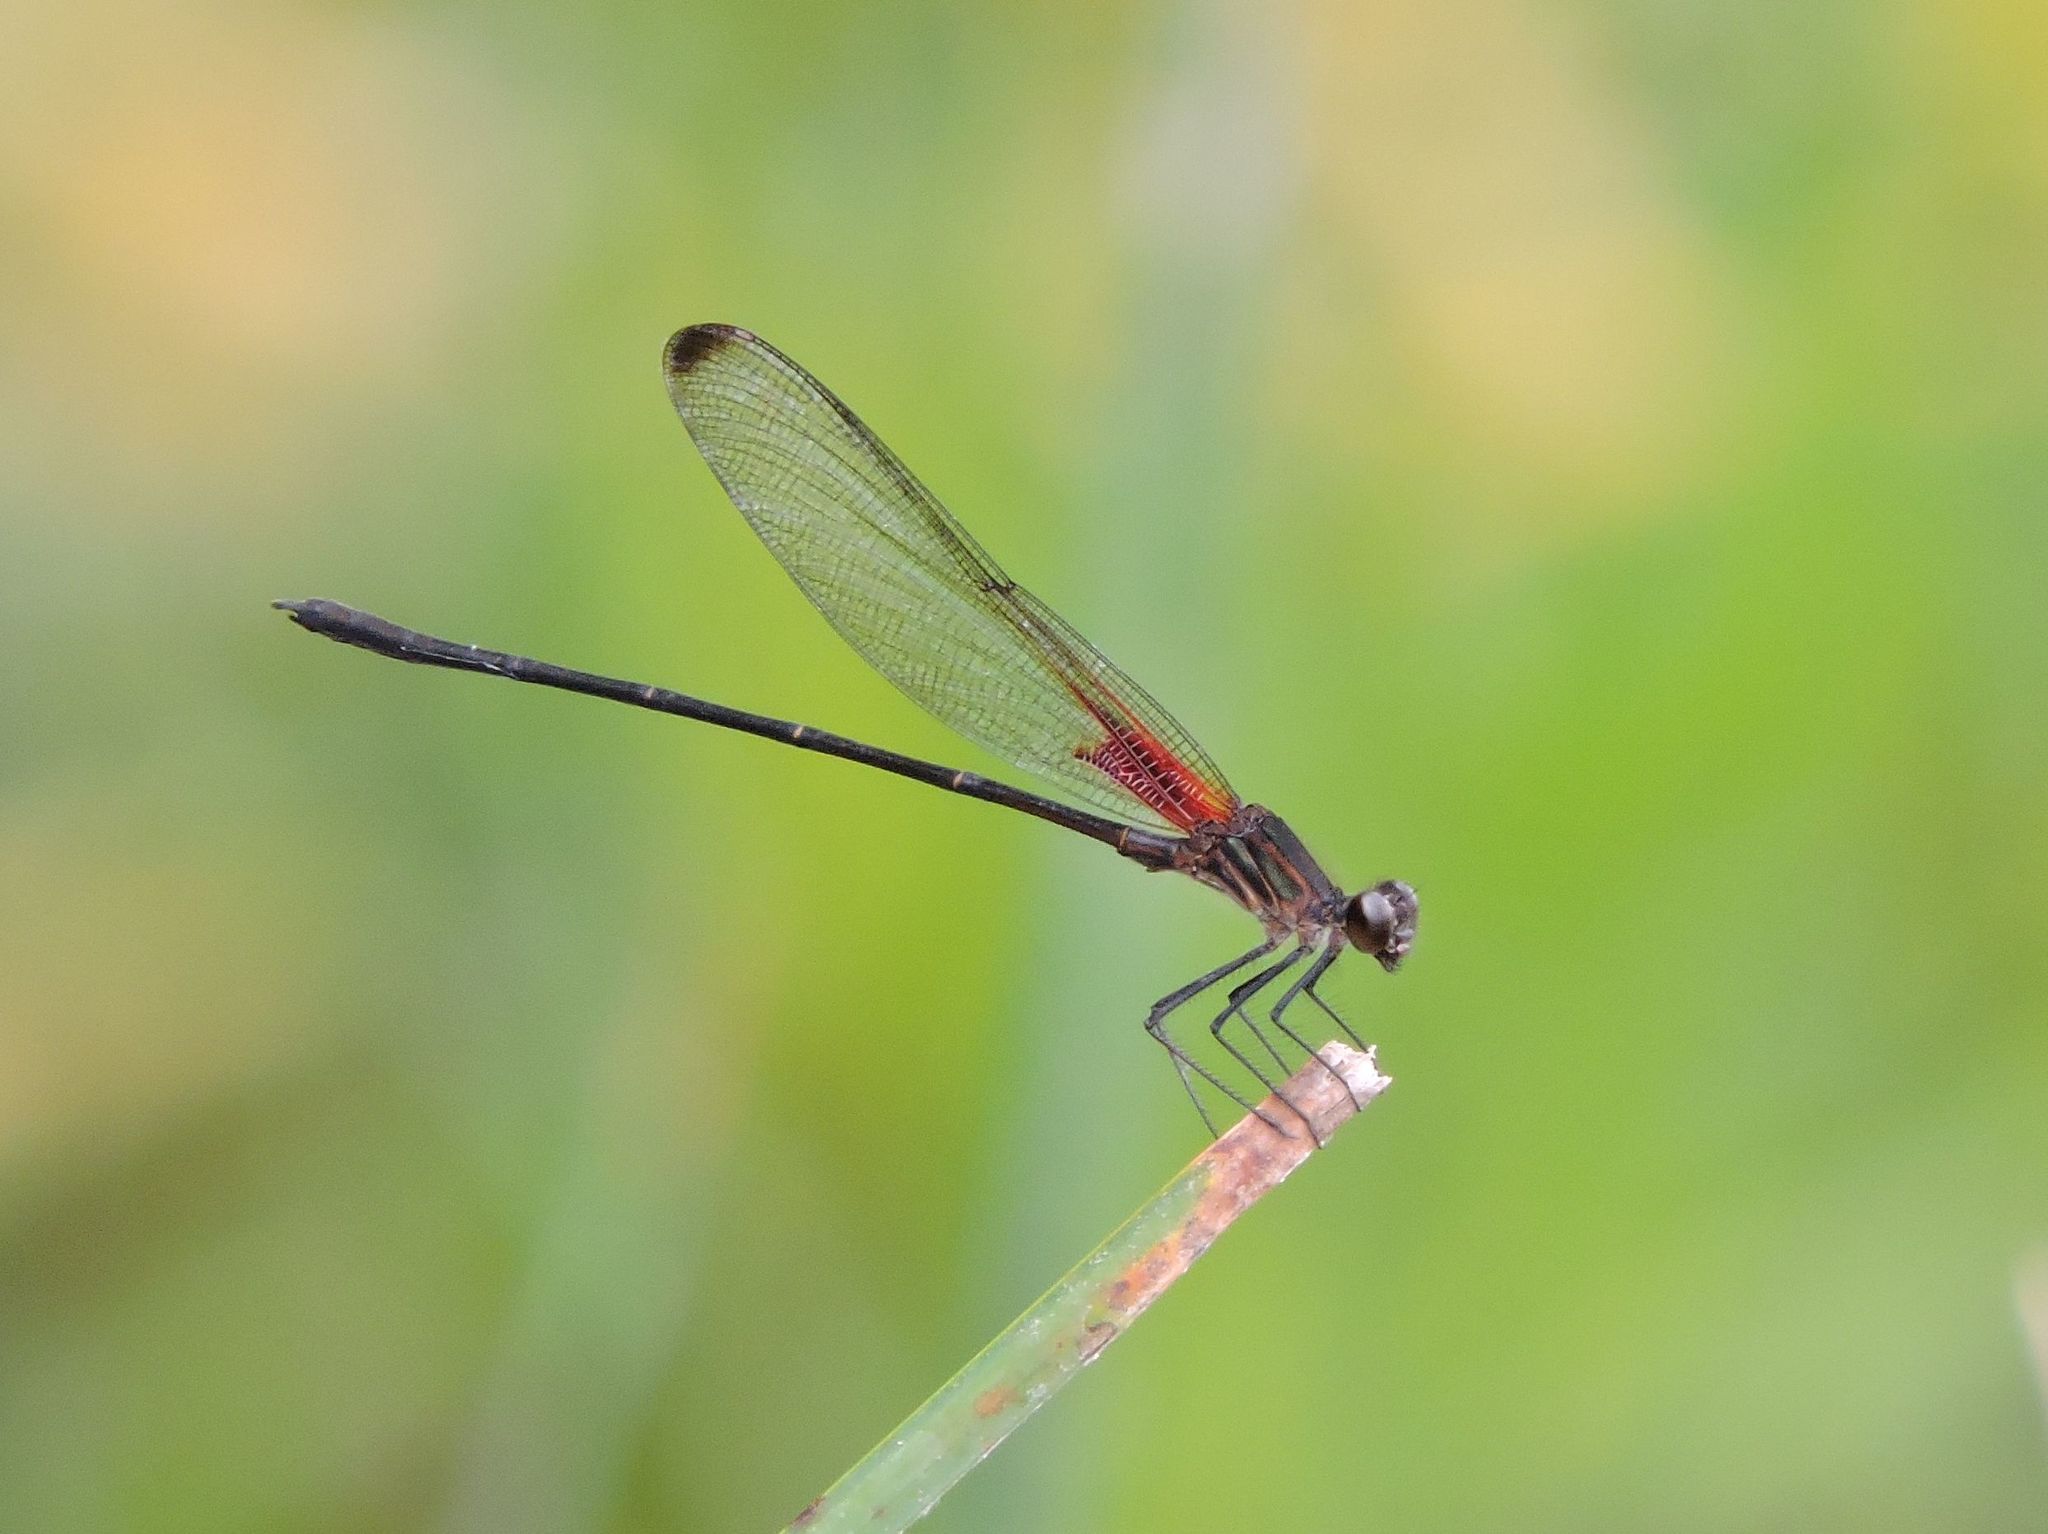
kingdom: Animalia
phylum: Chordata
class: Aves
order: Accipitriformes
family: Pandionidae
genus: Pandion
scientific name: Pandion haliaetus
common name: Osprey
